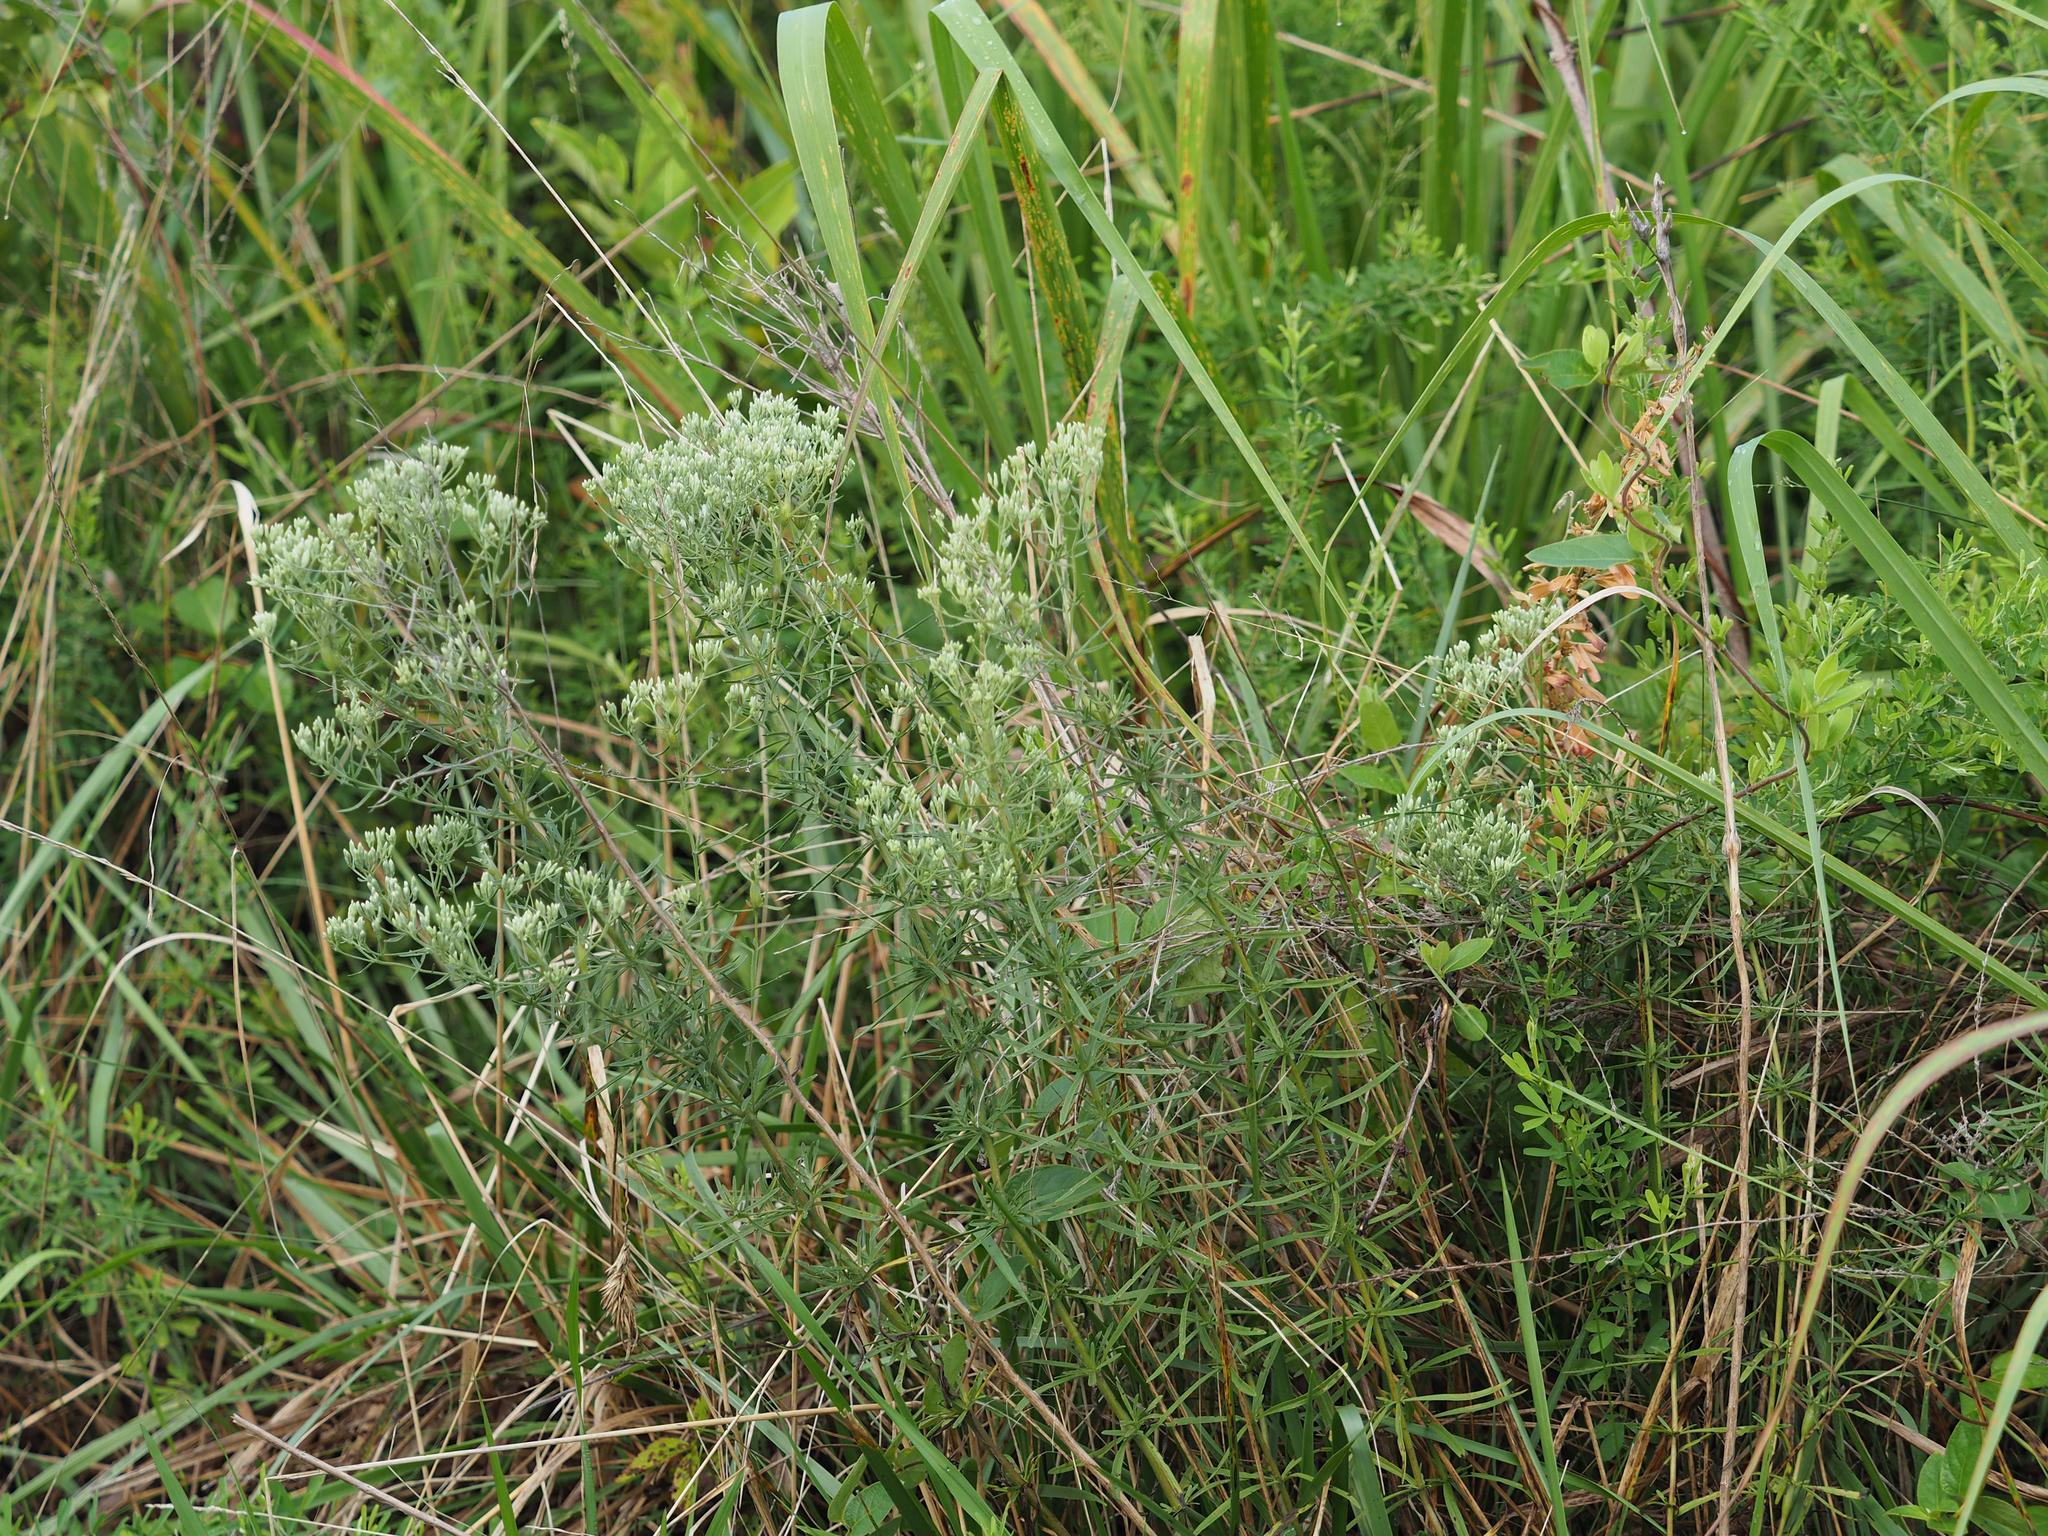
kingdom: Plantae
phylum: Tracheophyta
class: Magnoliopsida
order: Asterales
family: Asteraceae
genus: Eupatorium
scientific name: Eupatorium hyssopifolium
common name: Hyssop-leaf thoroughwort
